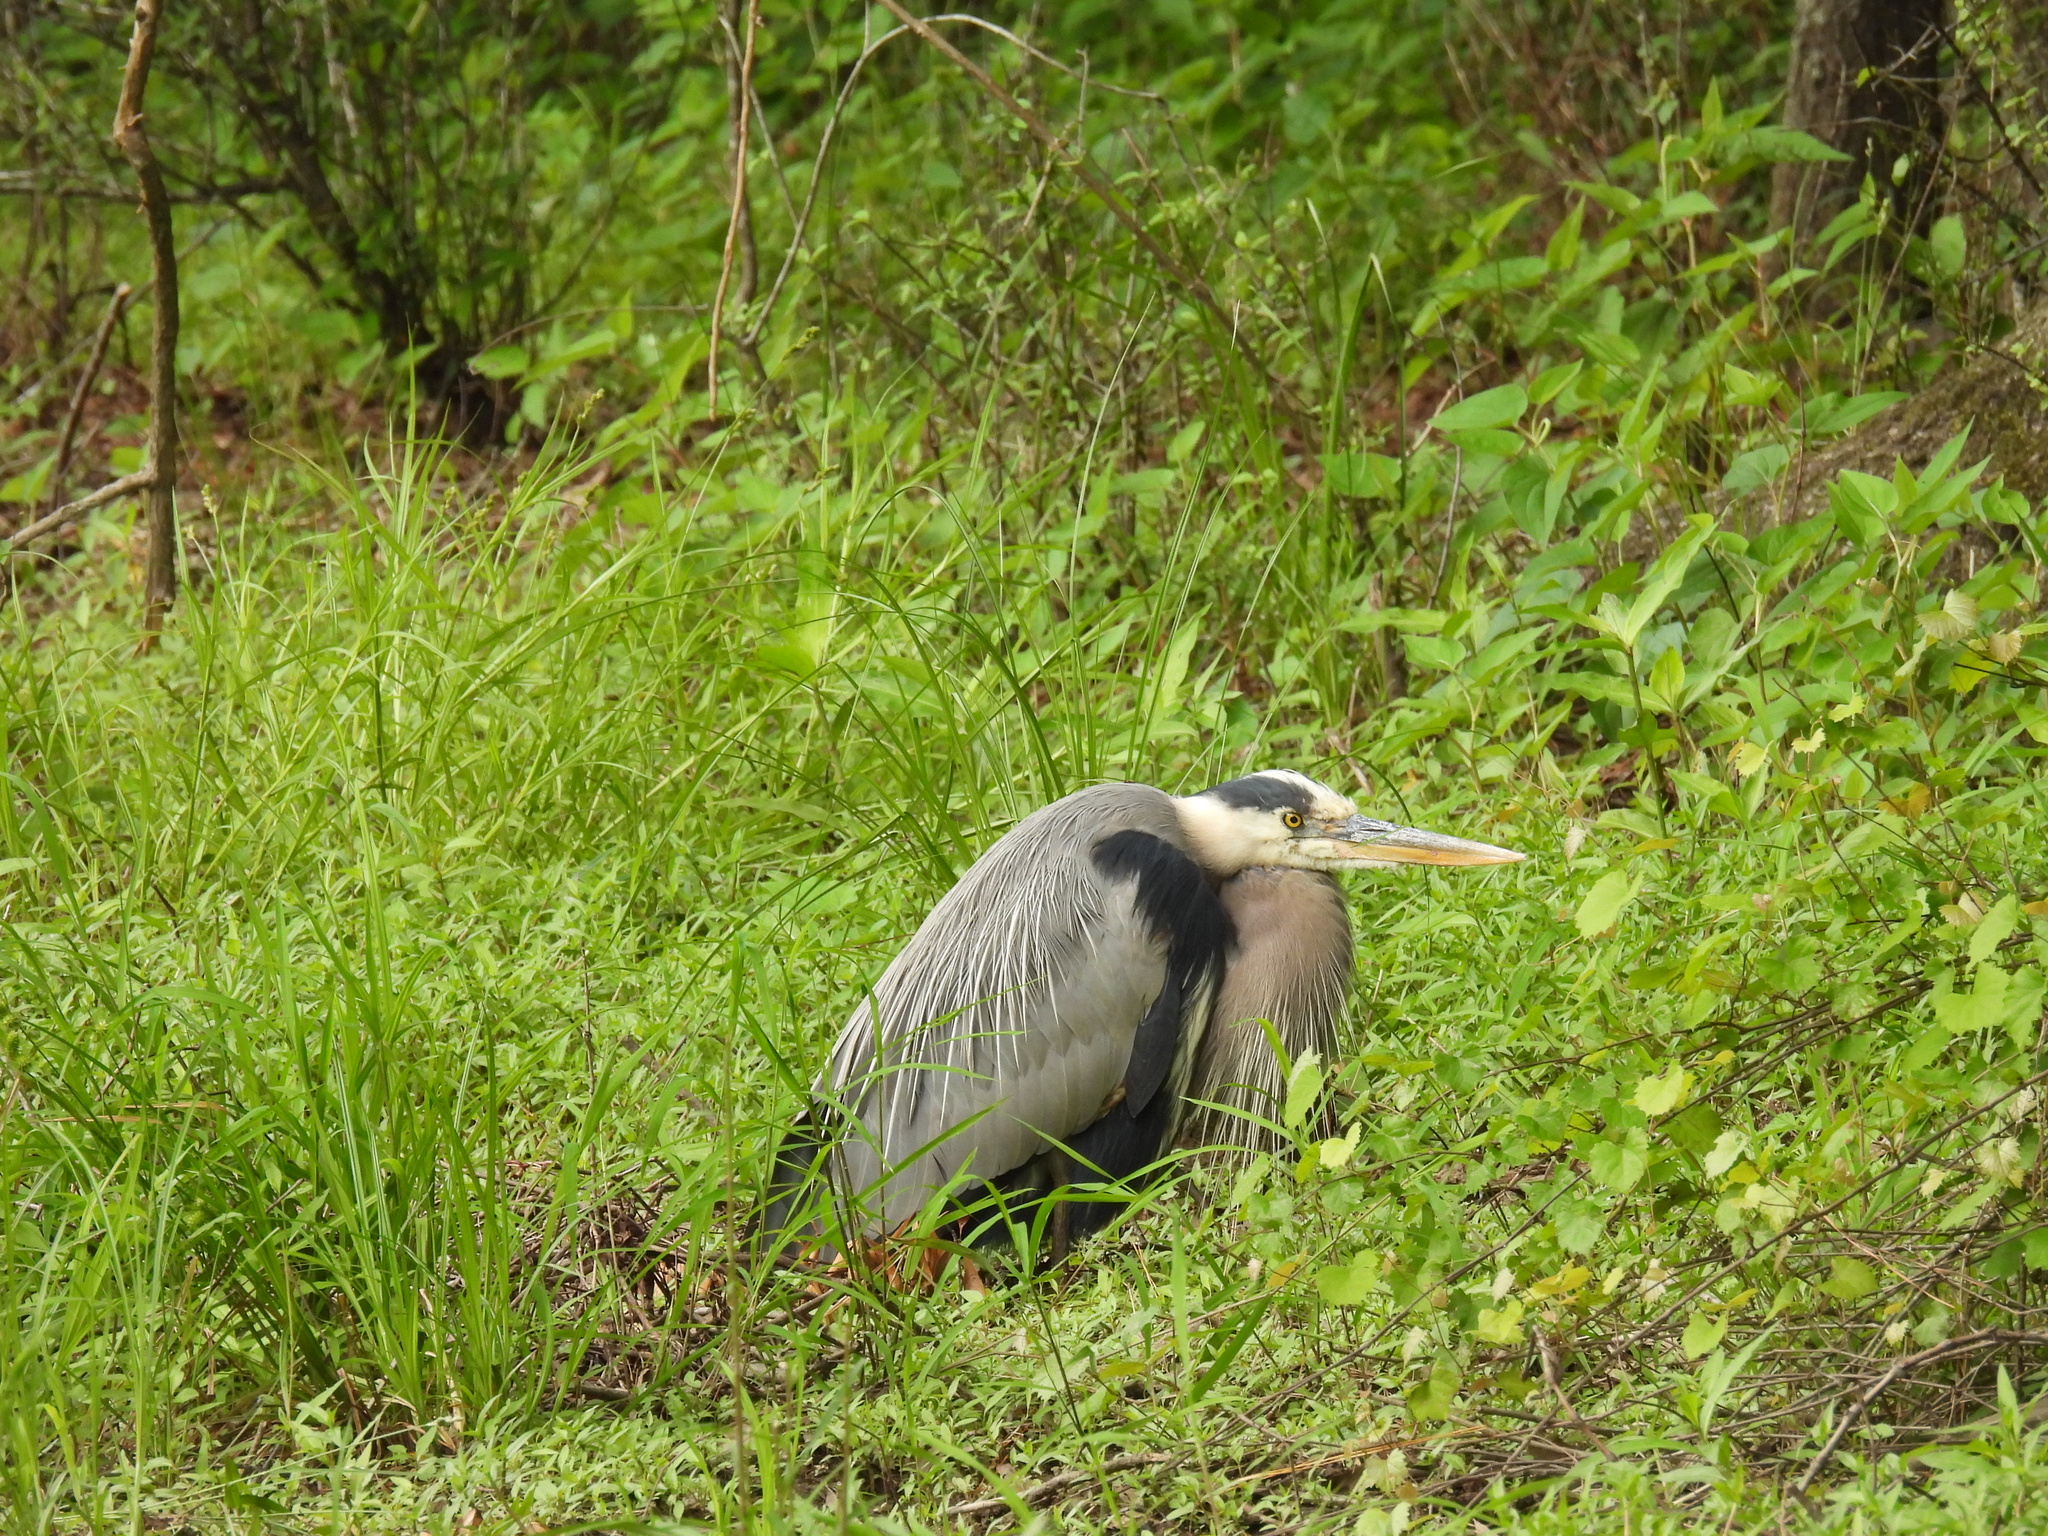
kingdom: Animalia
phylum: Chordata
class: Aves
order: Pelecaniformes
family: Ardeidae
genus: Ardea
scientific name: Ardea herodias
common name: Great blue heron
